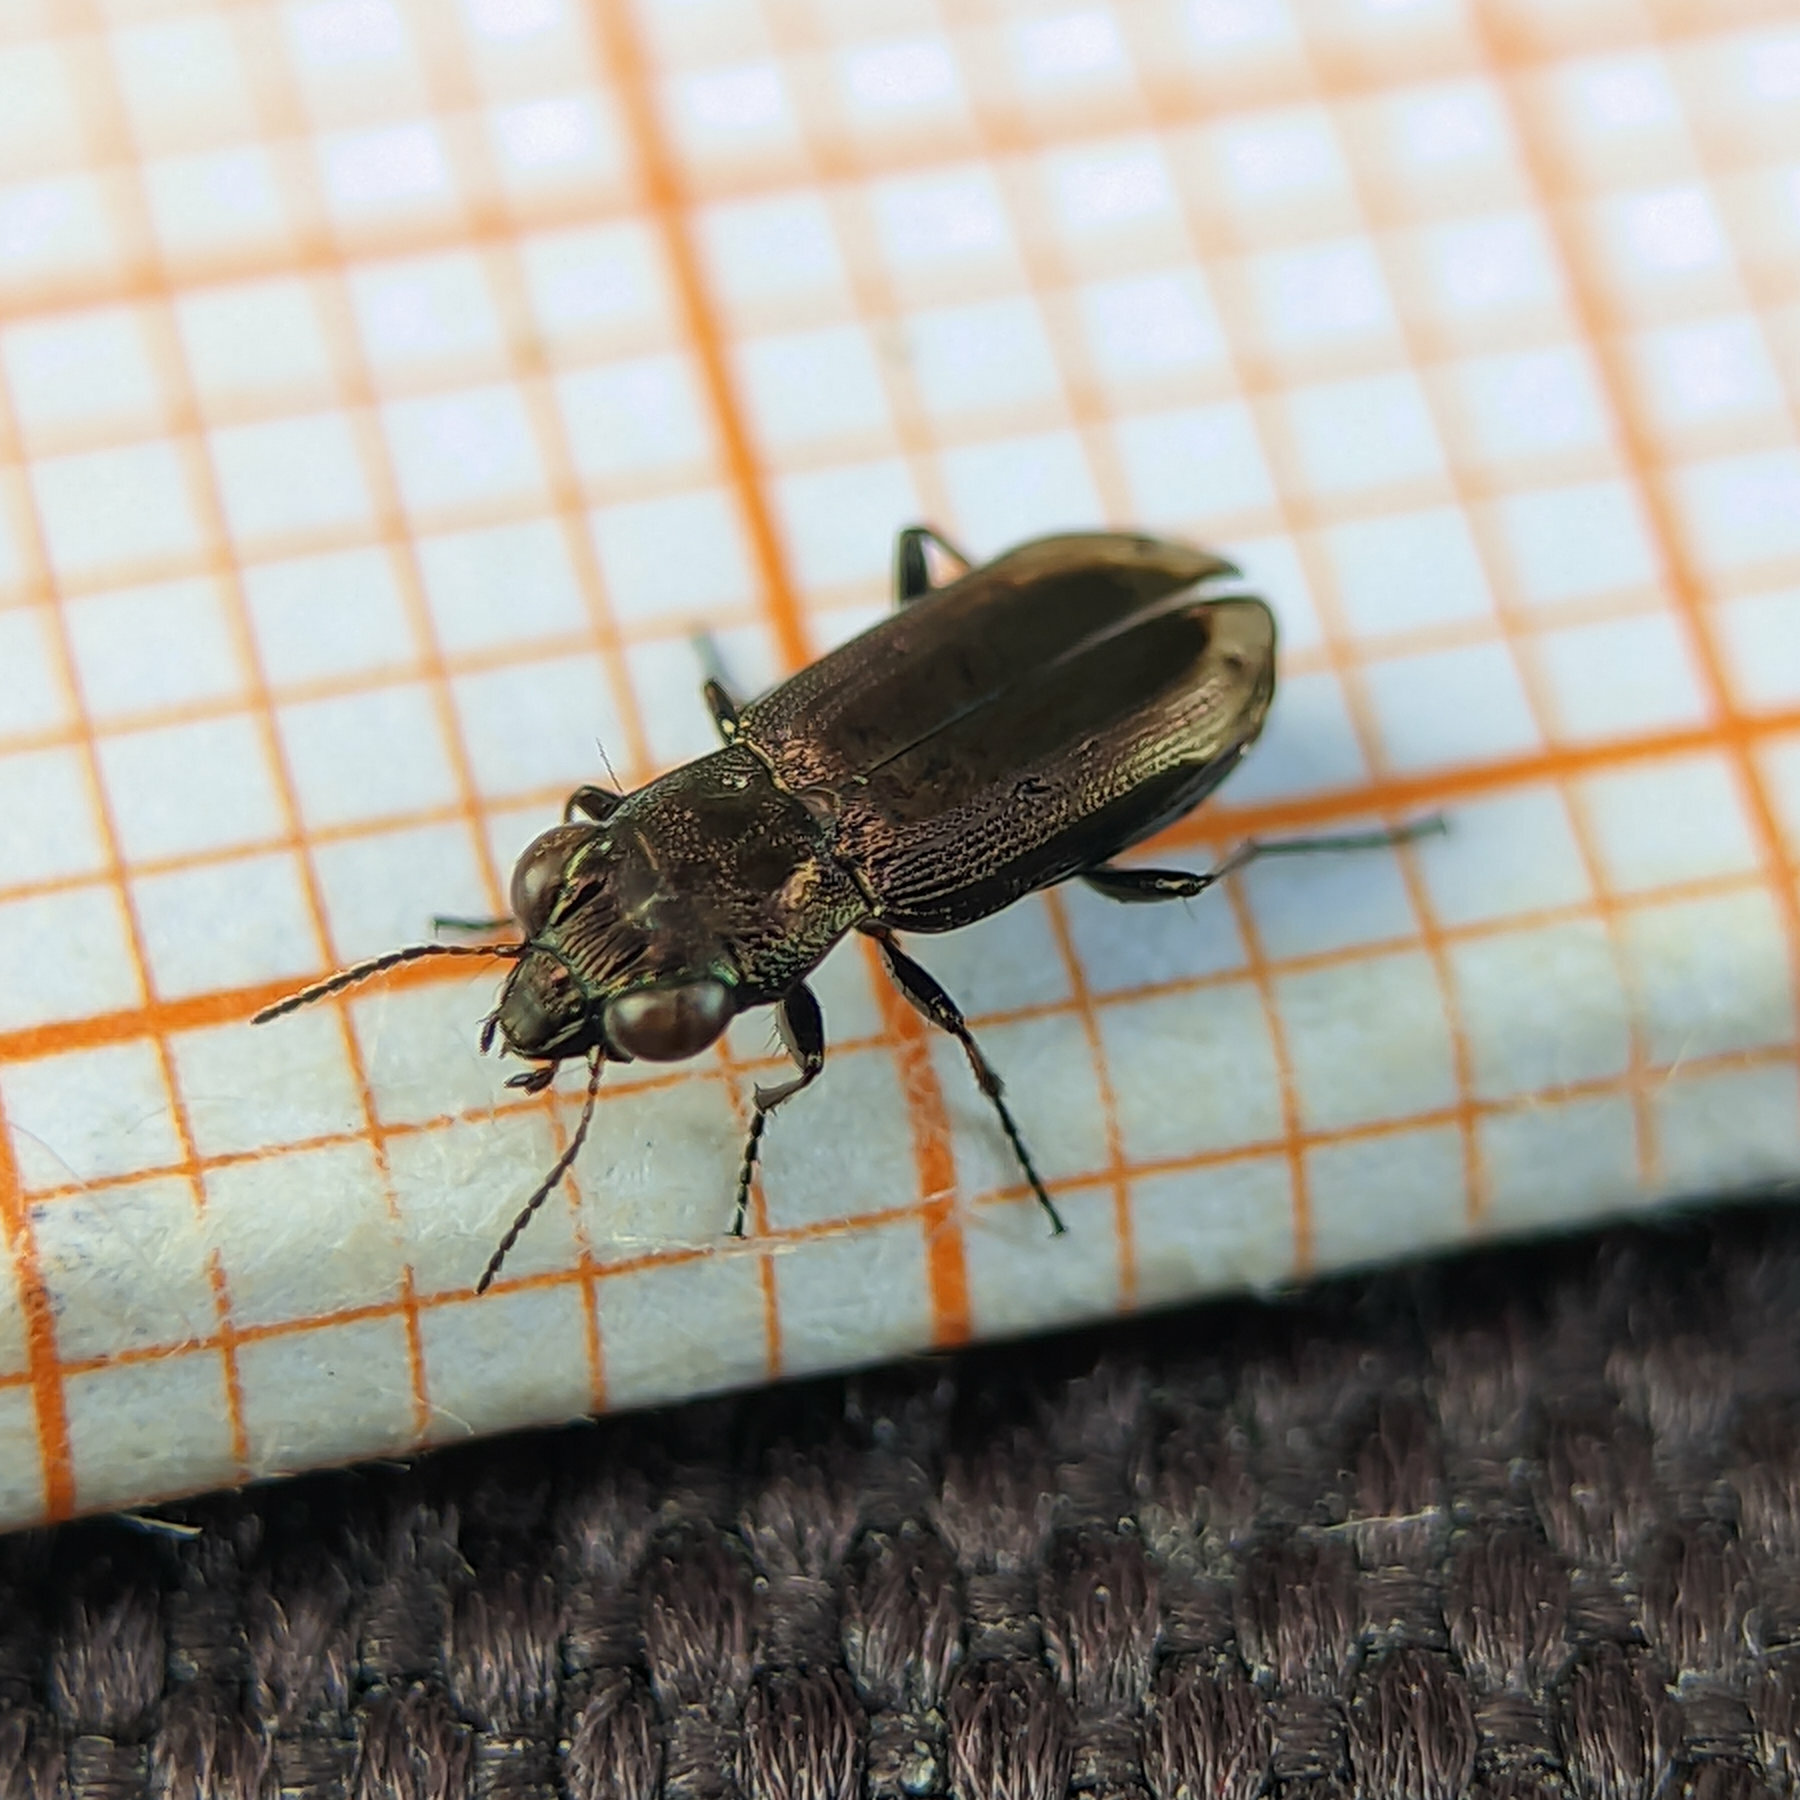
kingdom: Animalia
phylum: Arthropoda
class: Insecta
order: Coleoptera
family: Carabidae
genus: Notiophilus
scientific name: Notiophilus quadripunctatus
